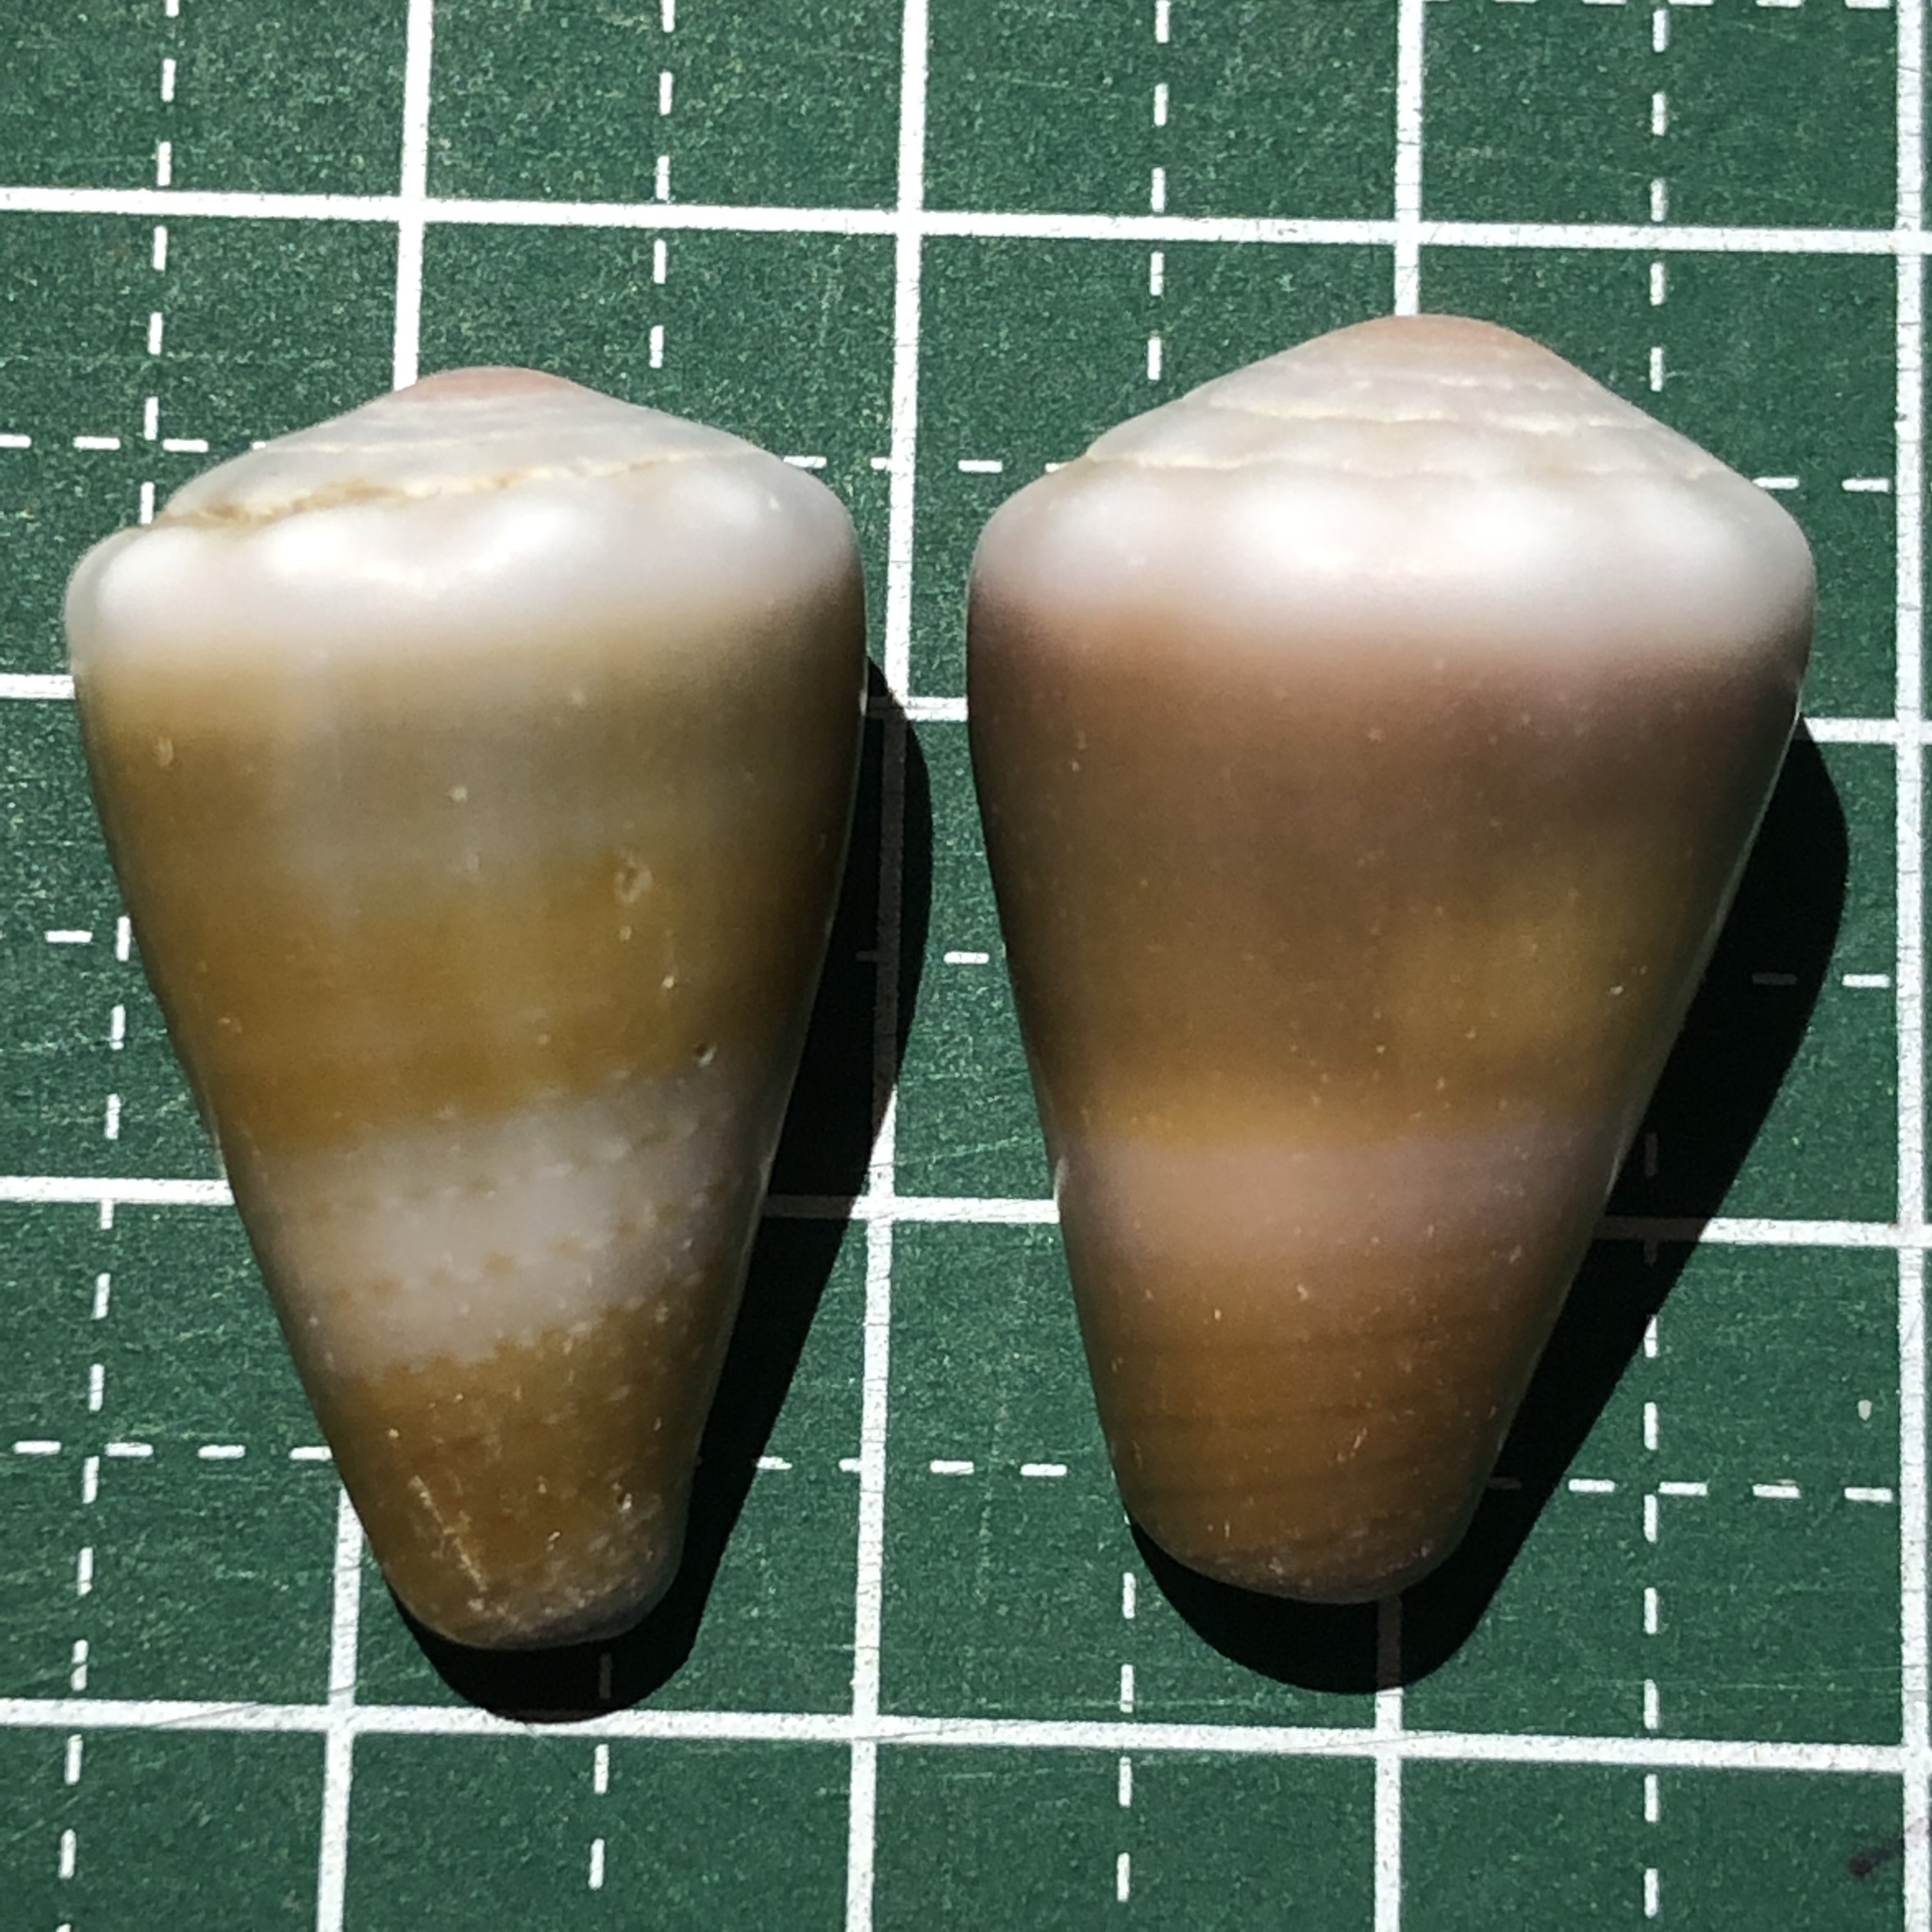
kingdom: Animalia
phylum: Mollusca
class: Gastropoda
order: Neogastropoda
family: Conidae
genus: Conus
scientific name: Conus lividus
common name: Livid cone
